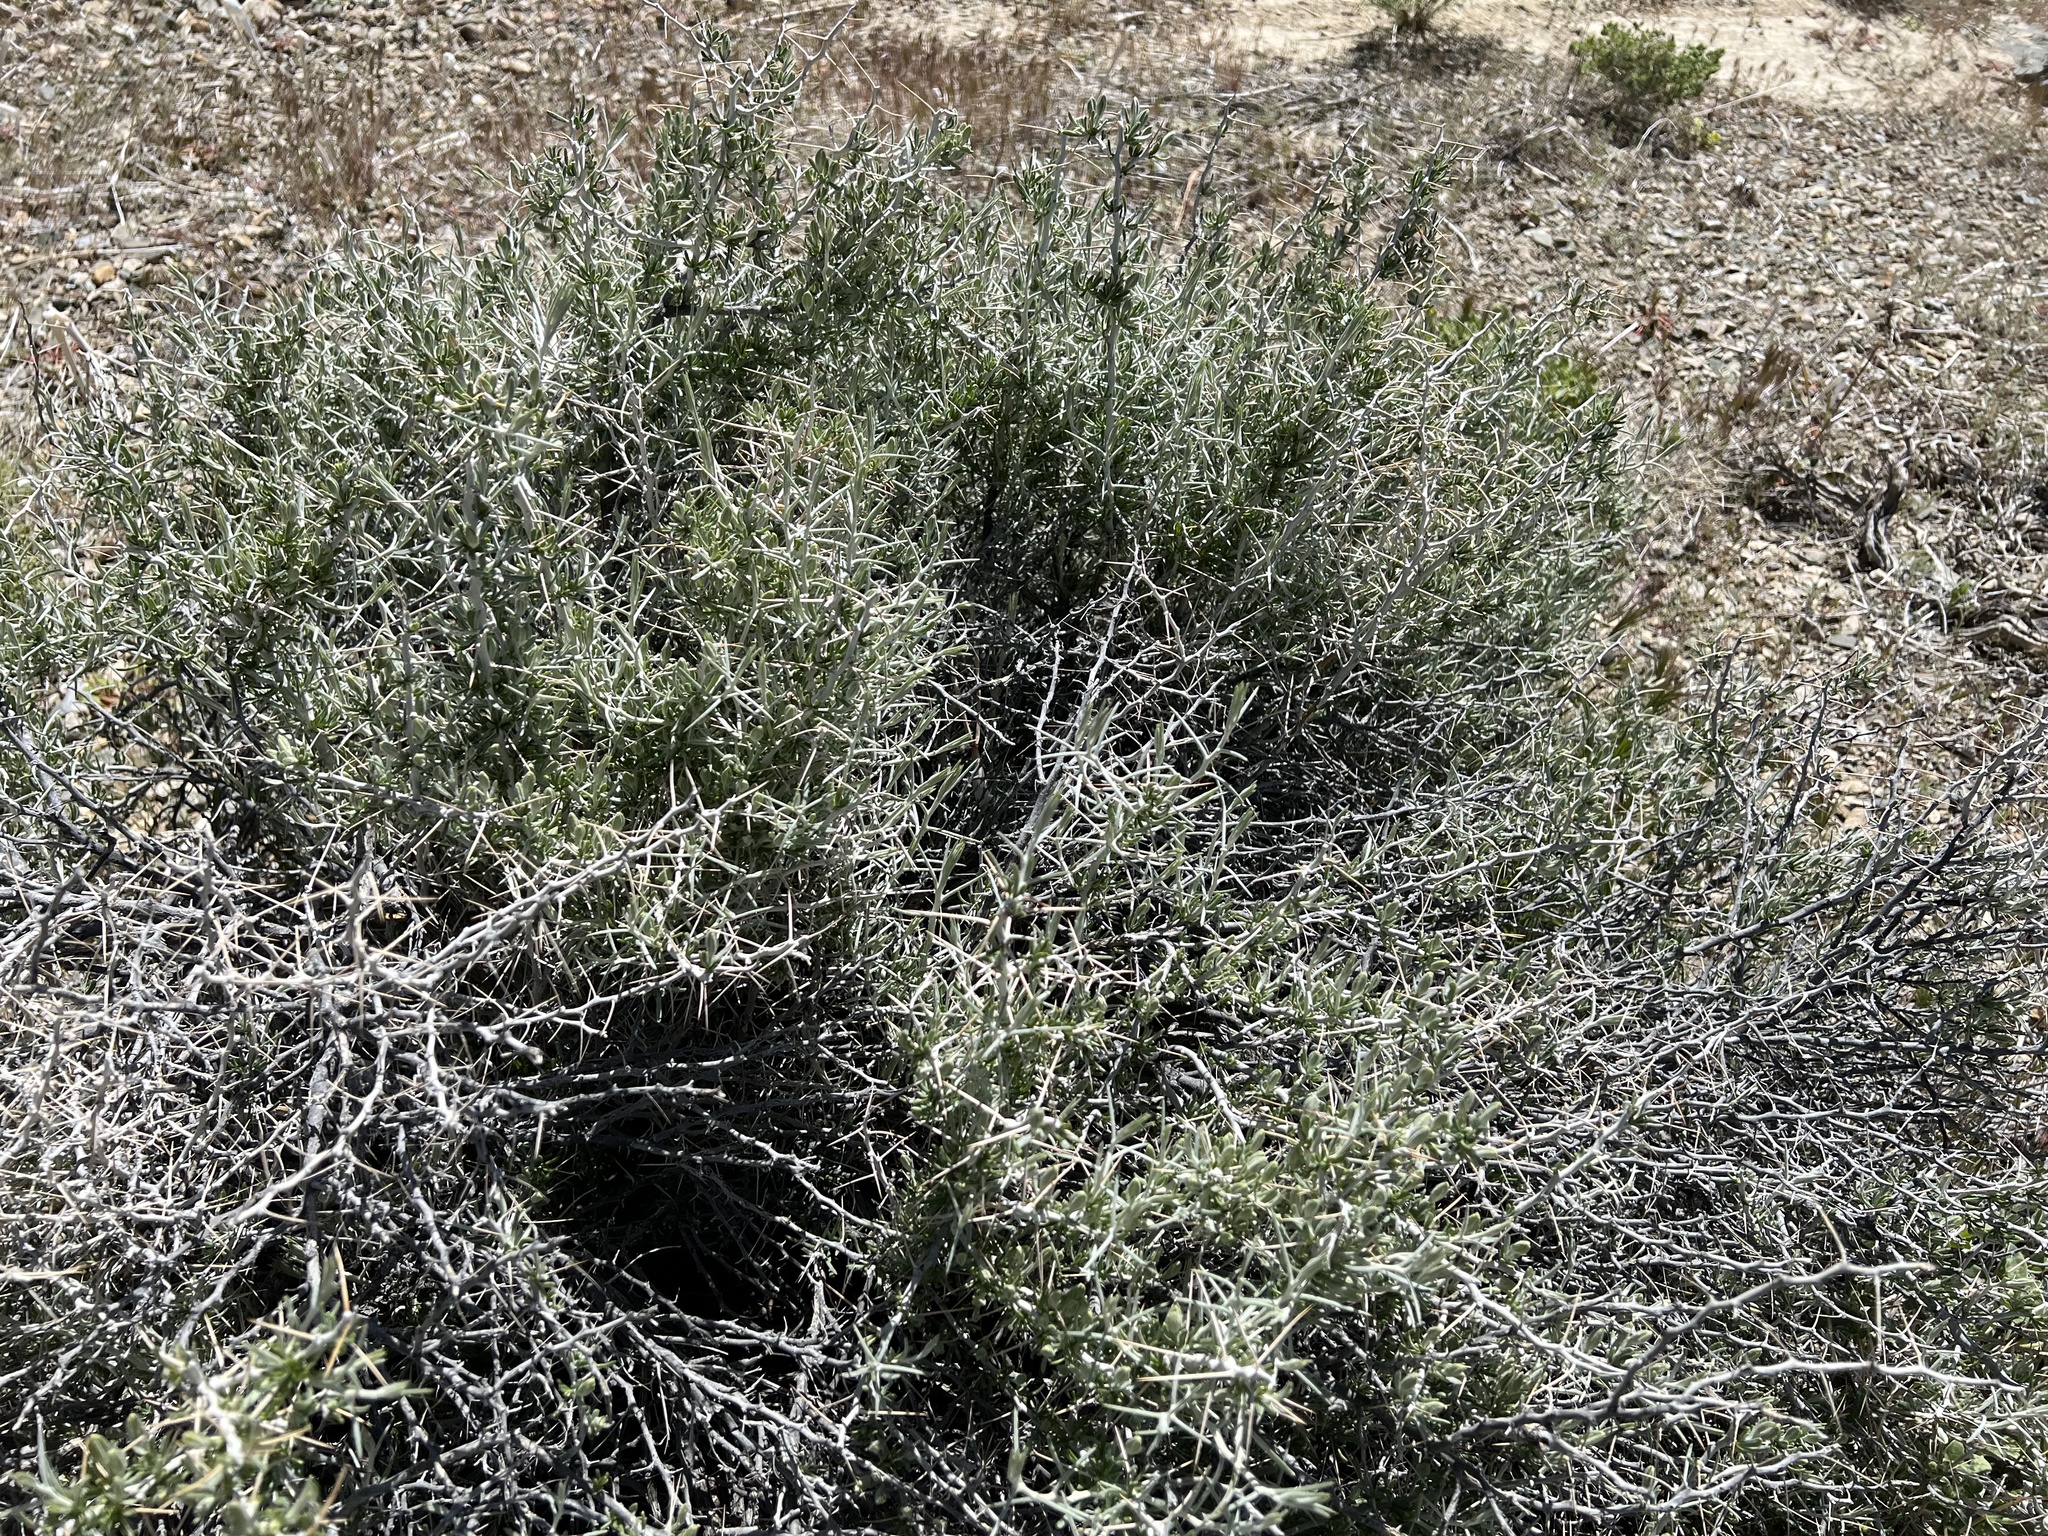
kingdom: Plantae
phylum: Tracheophyta
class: Magnoliopsida
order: Asterales
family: Asteraceae
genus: Tetradymia
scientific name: Tetradymia axillaris
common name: Long-spine horsebrush
